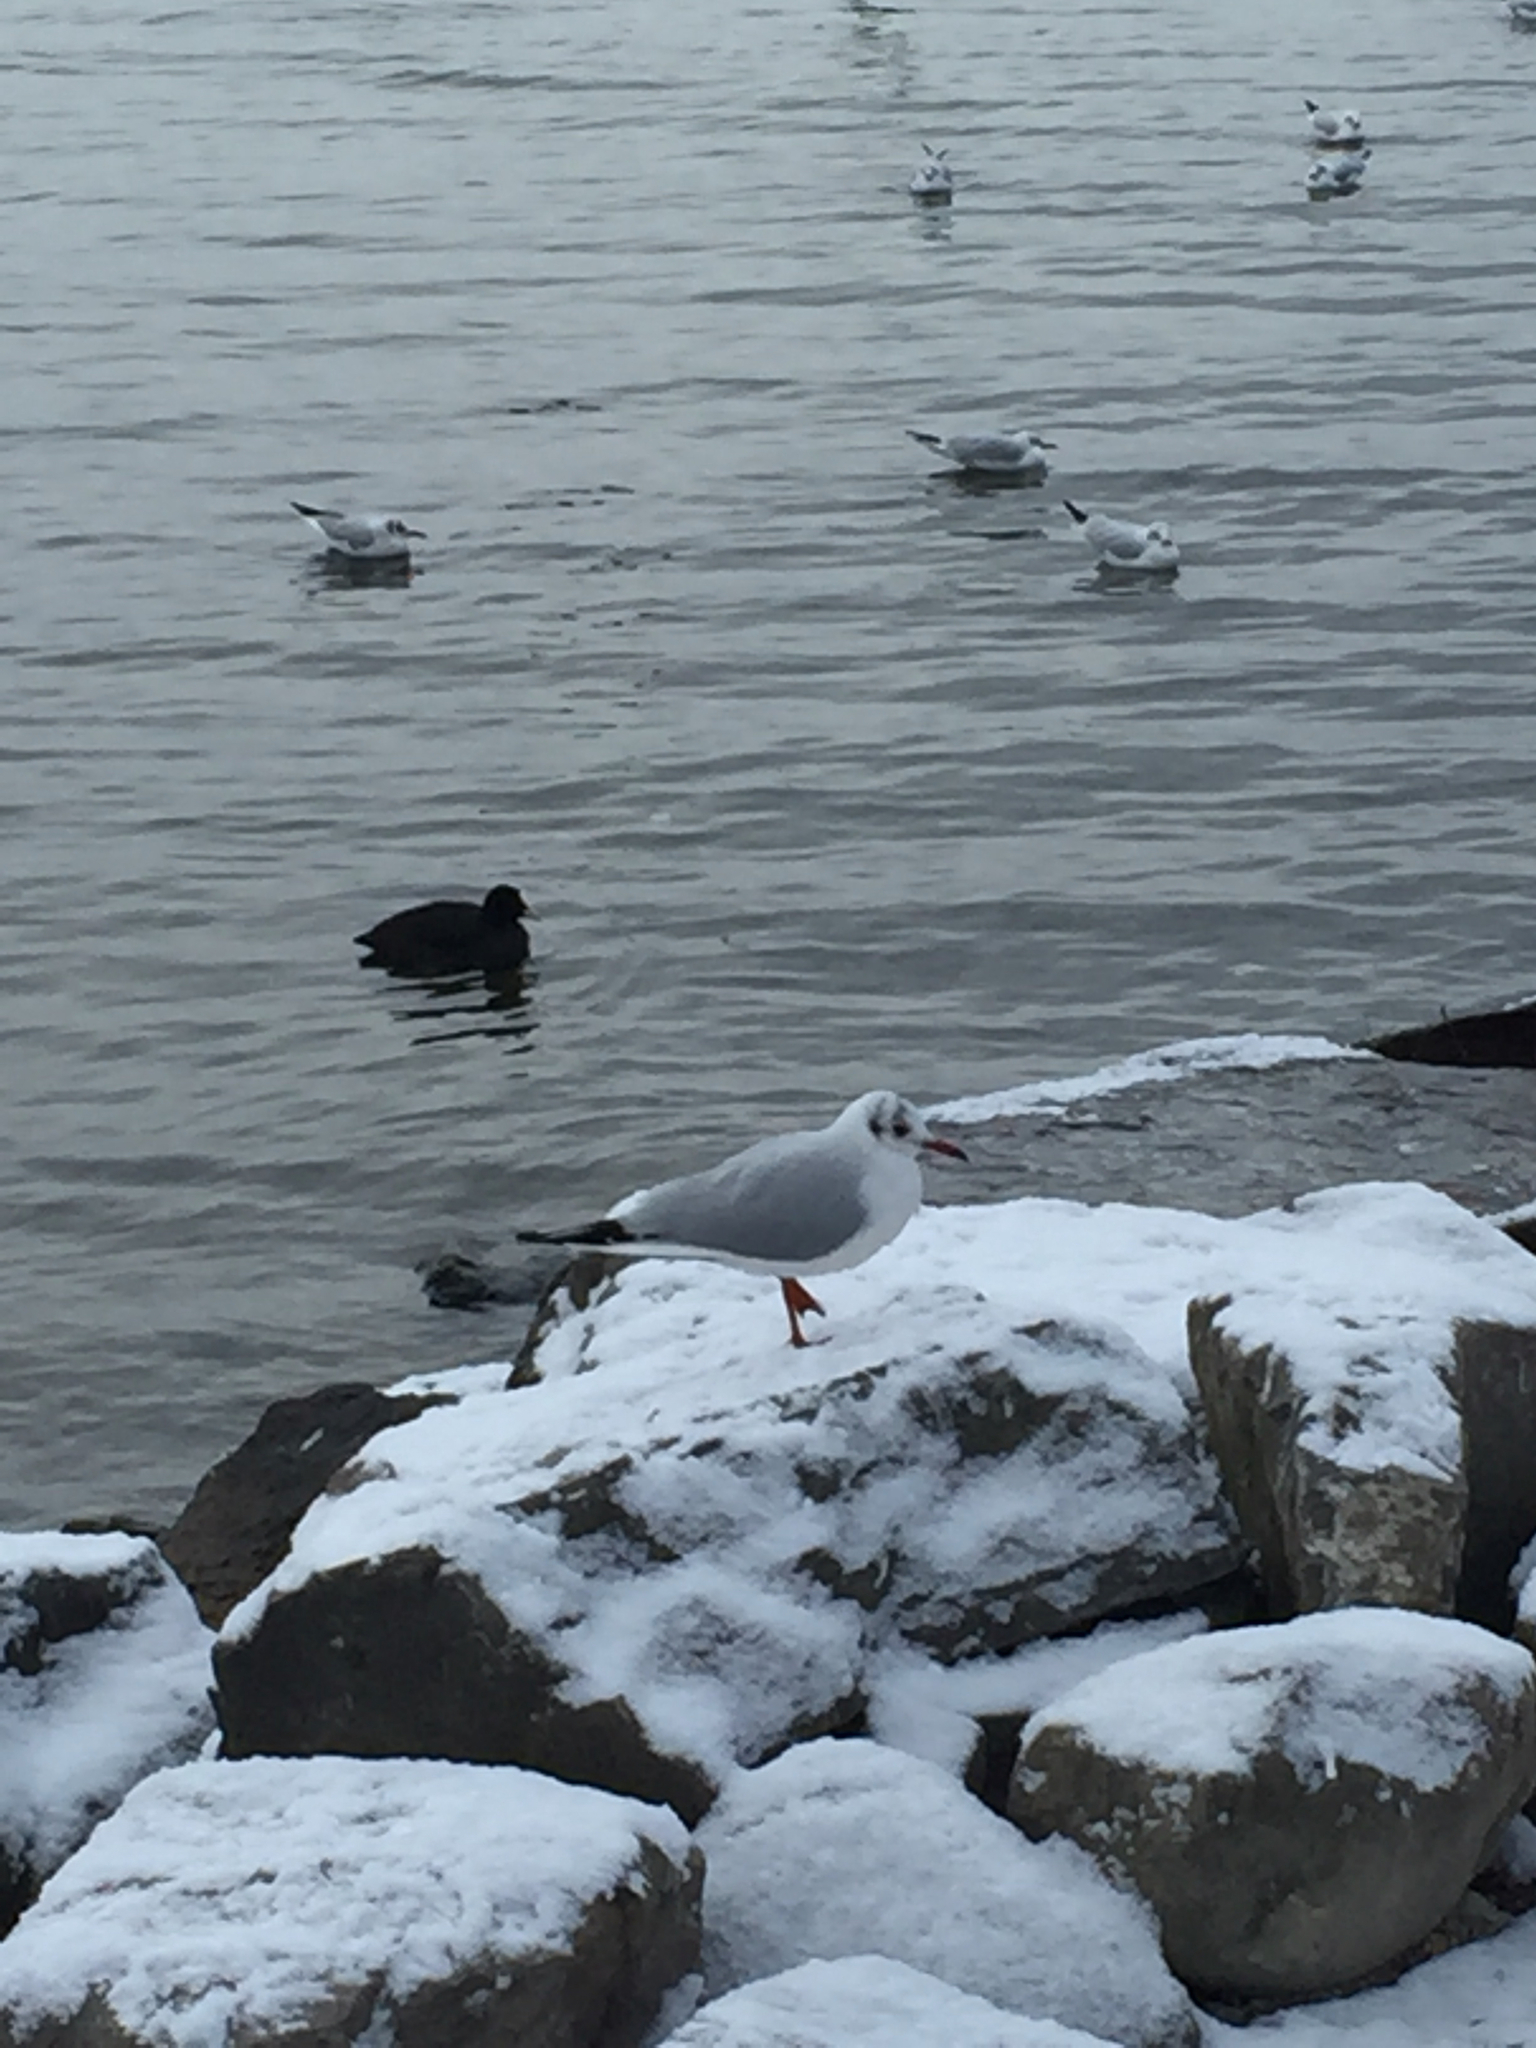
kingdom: Animalia
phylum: Chordata
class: Aves
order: Charadriiformes
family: Laridae
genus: Chroicocephalus
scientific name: Chroicocephalus ridibundus
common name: Black-headed gull
